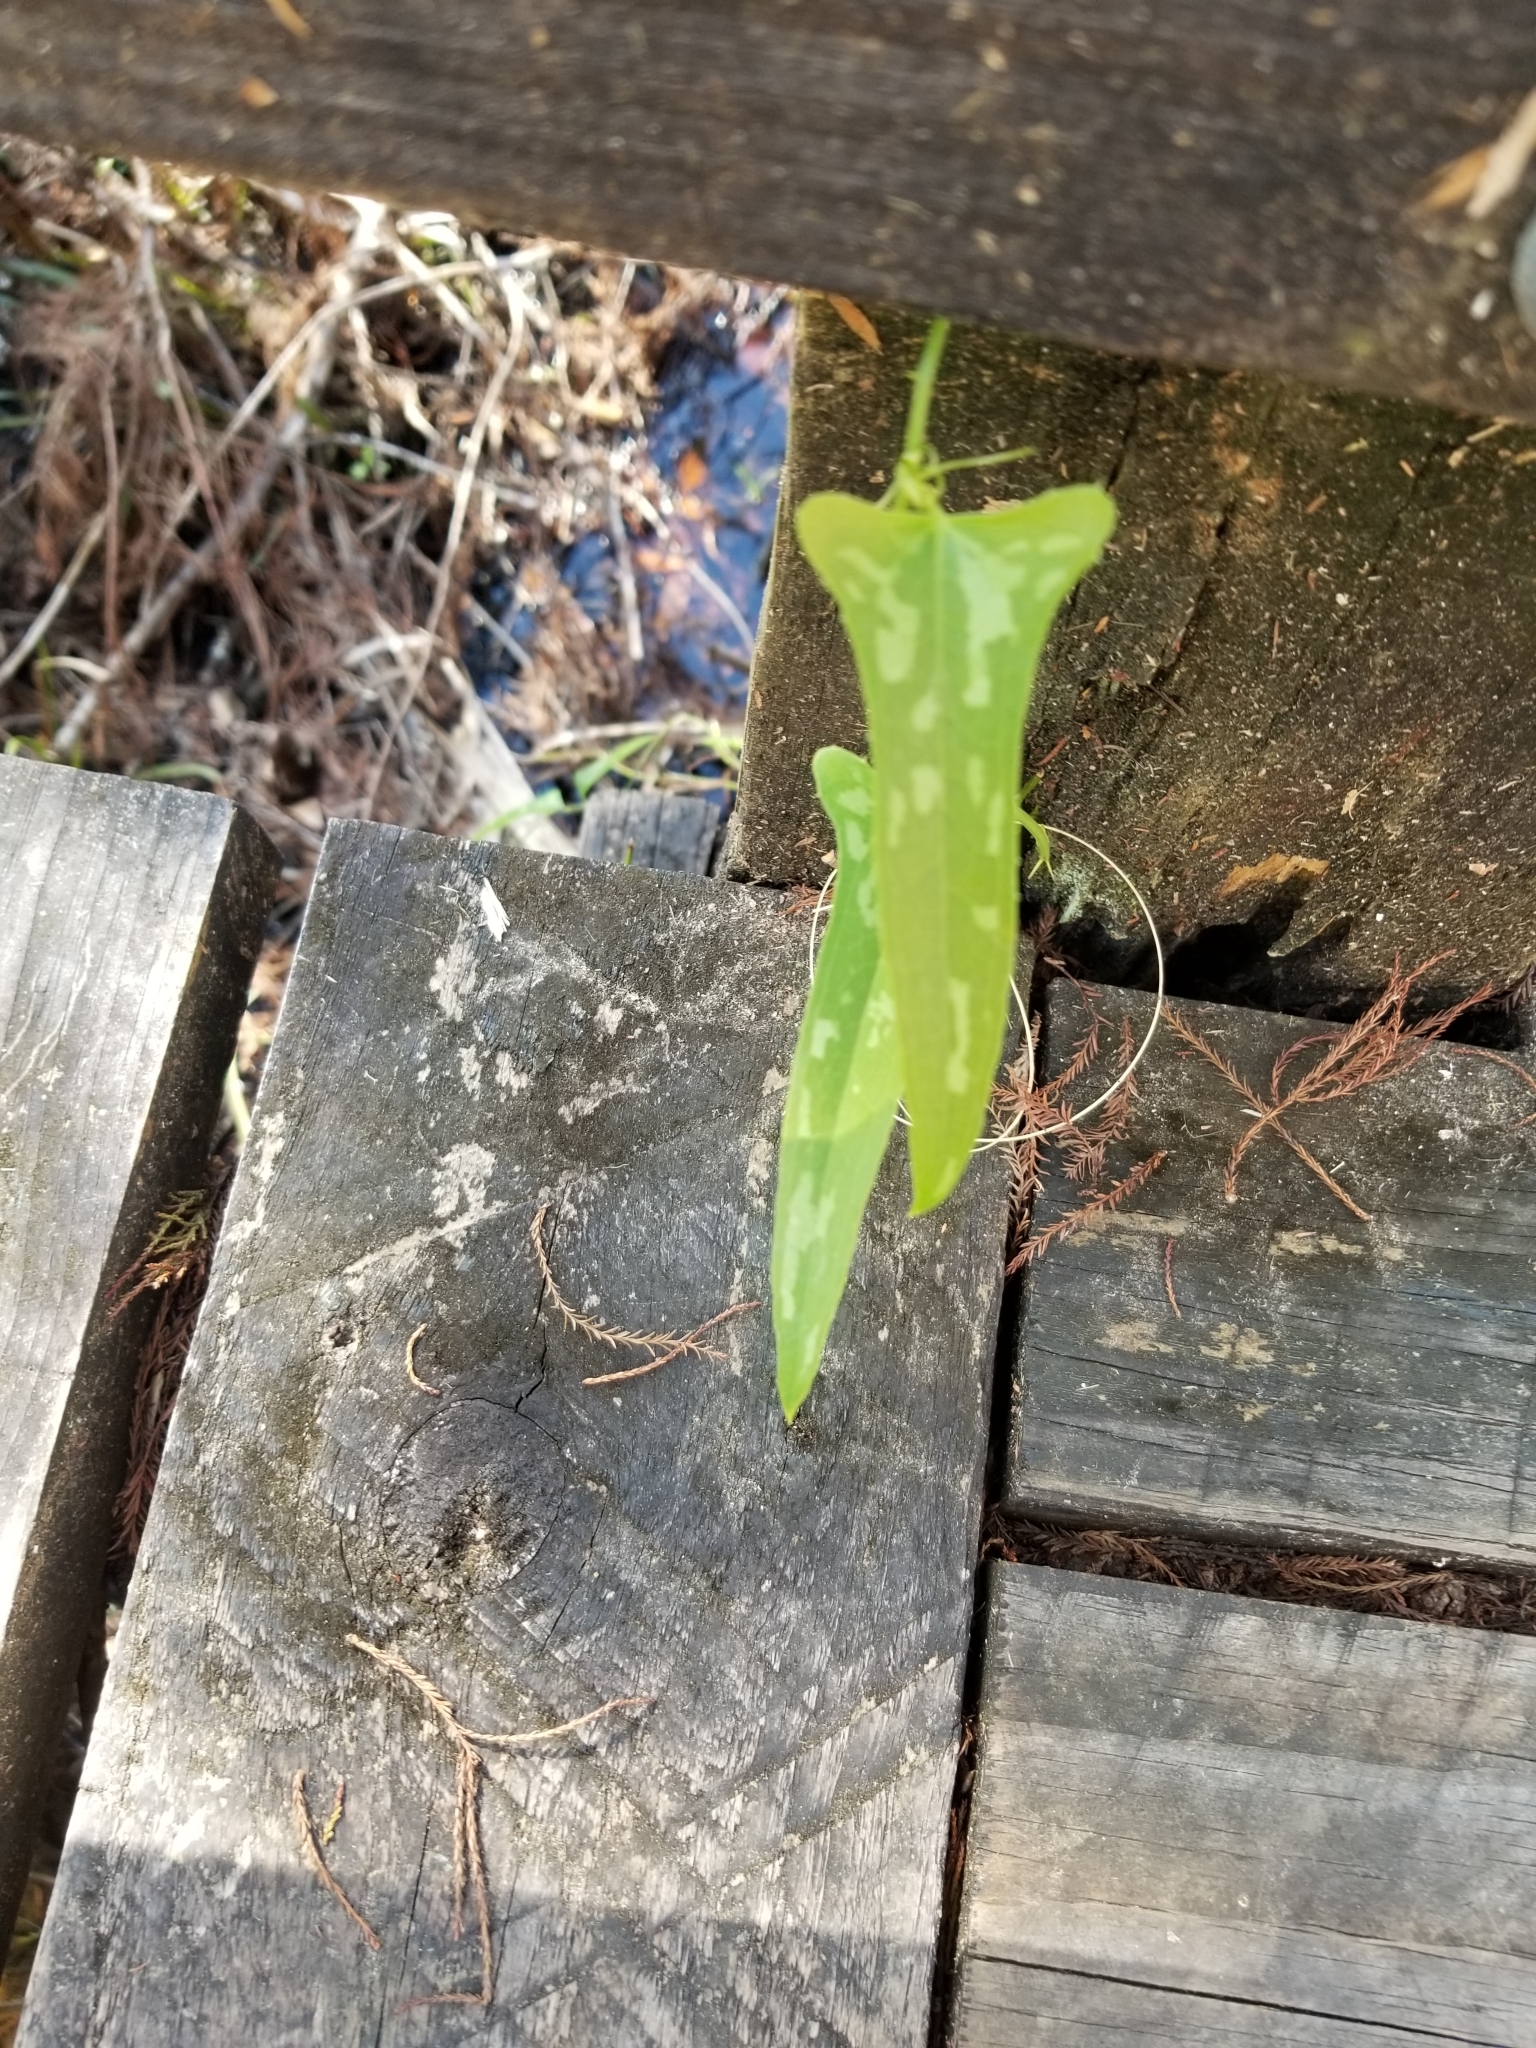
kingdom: Plantae
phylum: Tracheophyta
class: Liliopsida
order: Liliales
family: Smilacaceae
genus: Smilax
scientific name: Smilax bona-nox
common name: Catbrier
